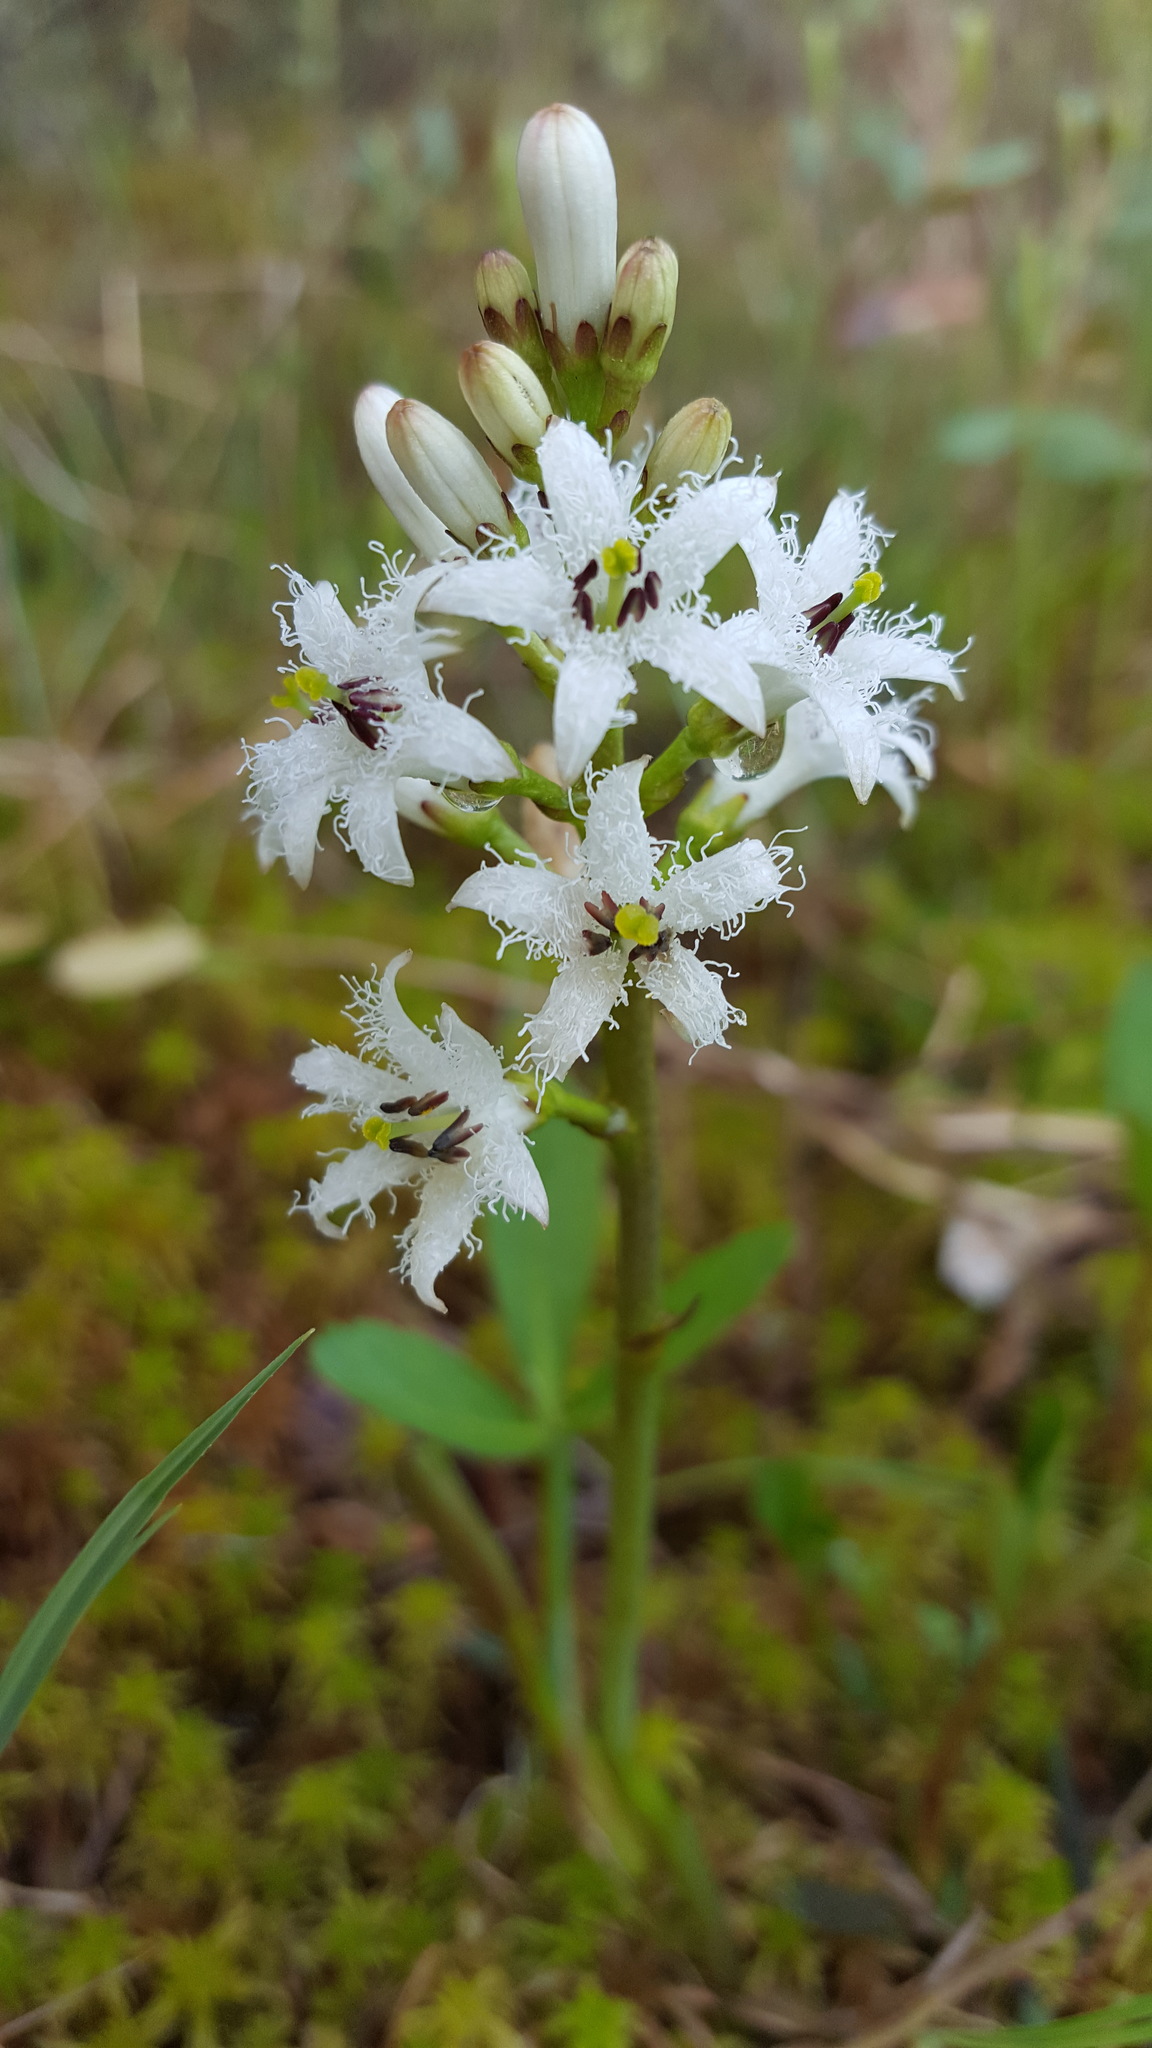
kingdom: Plantae
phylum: Tracheophyta
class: Magnoliopsida
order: Asterales
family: Menyanthaceae
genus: Menyanthes
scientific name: Menyanthes trifoliata
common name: Bogbean
